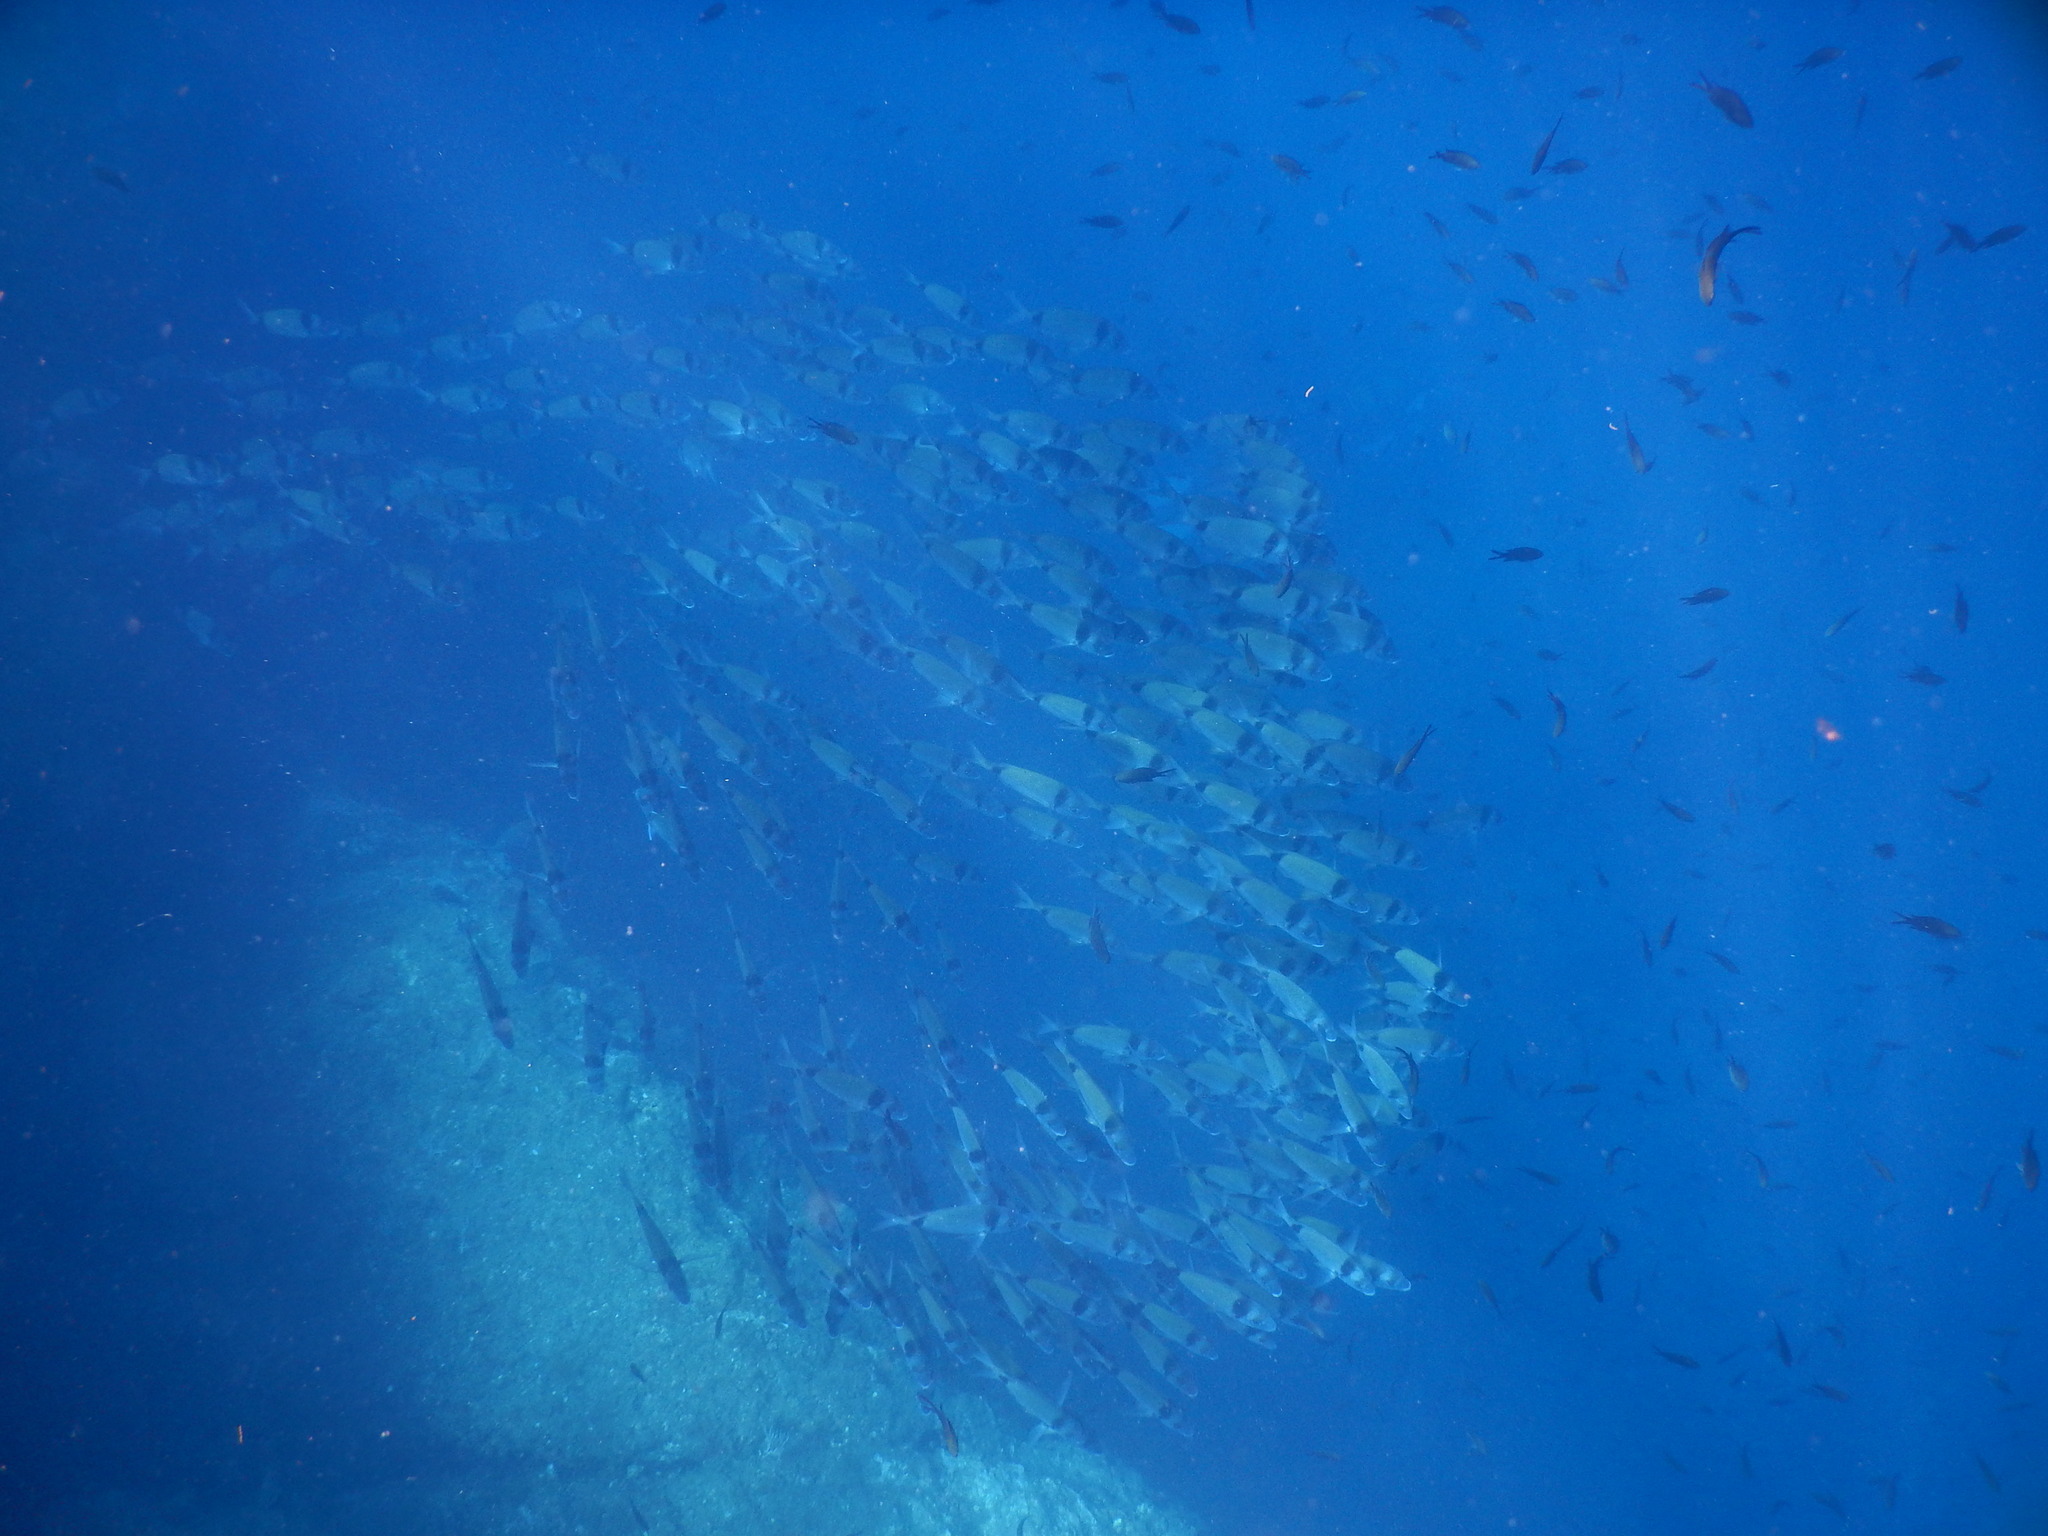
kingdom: Animalia
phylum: Chordata
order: Perciformes
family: Sparidae
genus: Diplodus
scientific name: Diplodus vulgaris
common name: Common two-banded seabream
